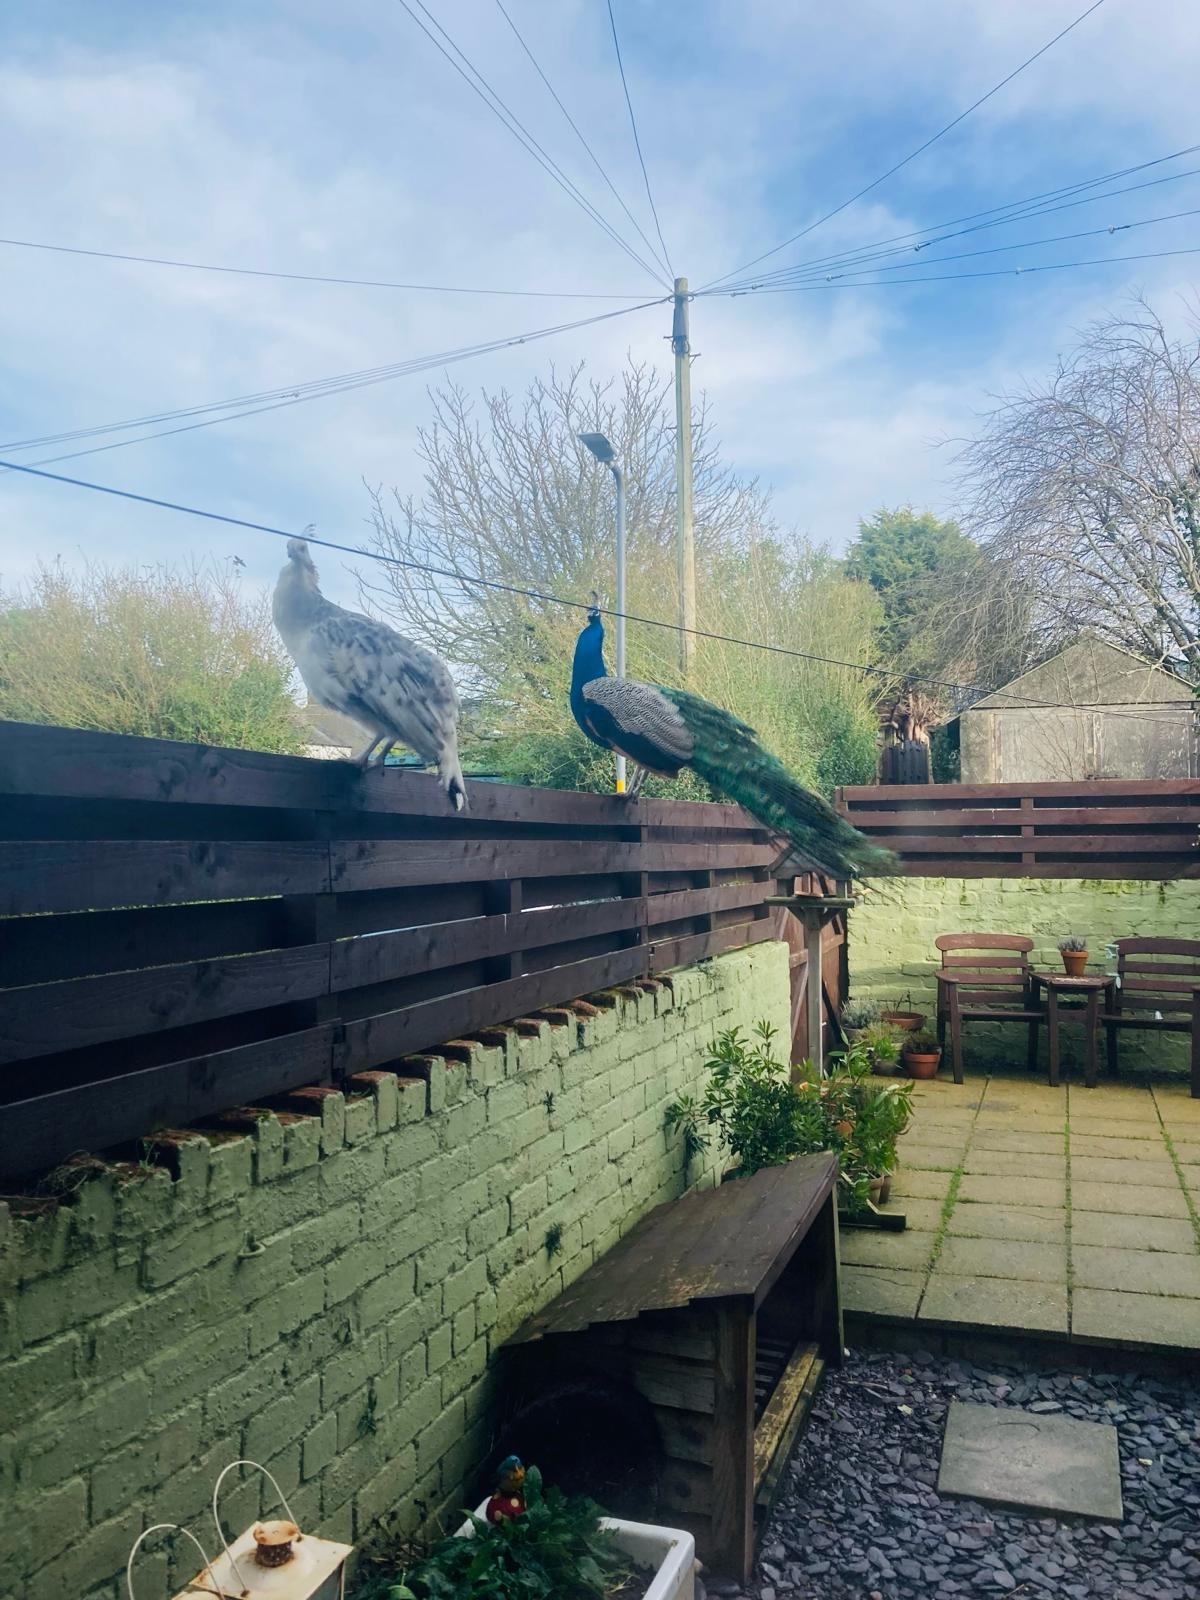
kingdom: Animalia
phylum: Chordata
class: Aves
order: Galliformes
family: Phasianidae
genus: Pavo
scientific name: Pavo cristatus
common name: Indian peafowl
